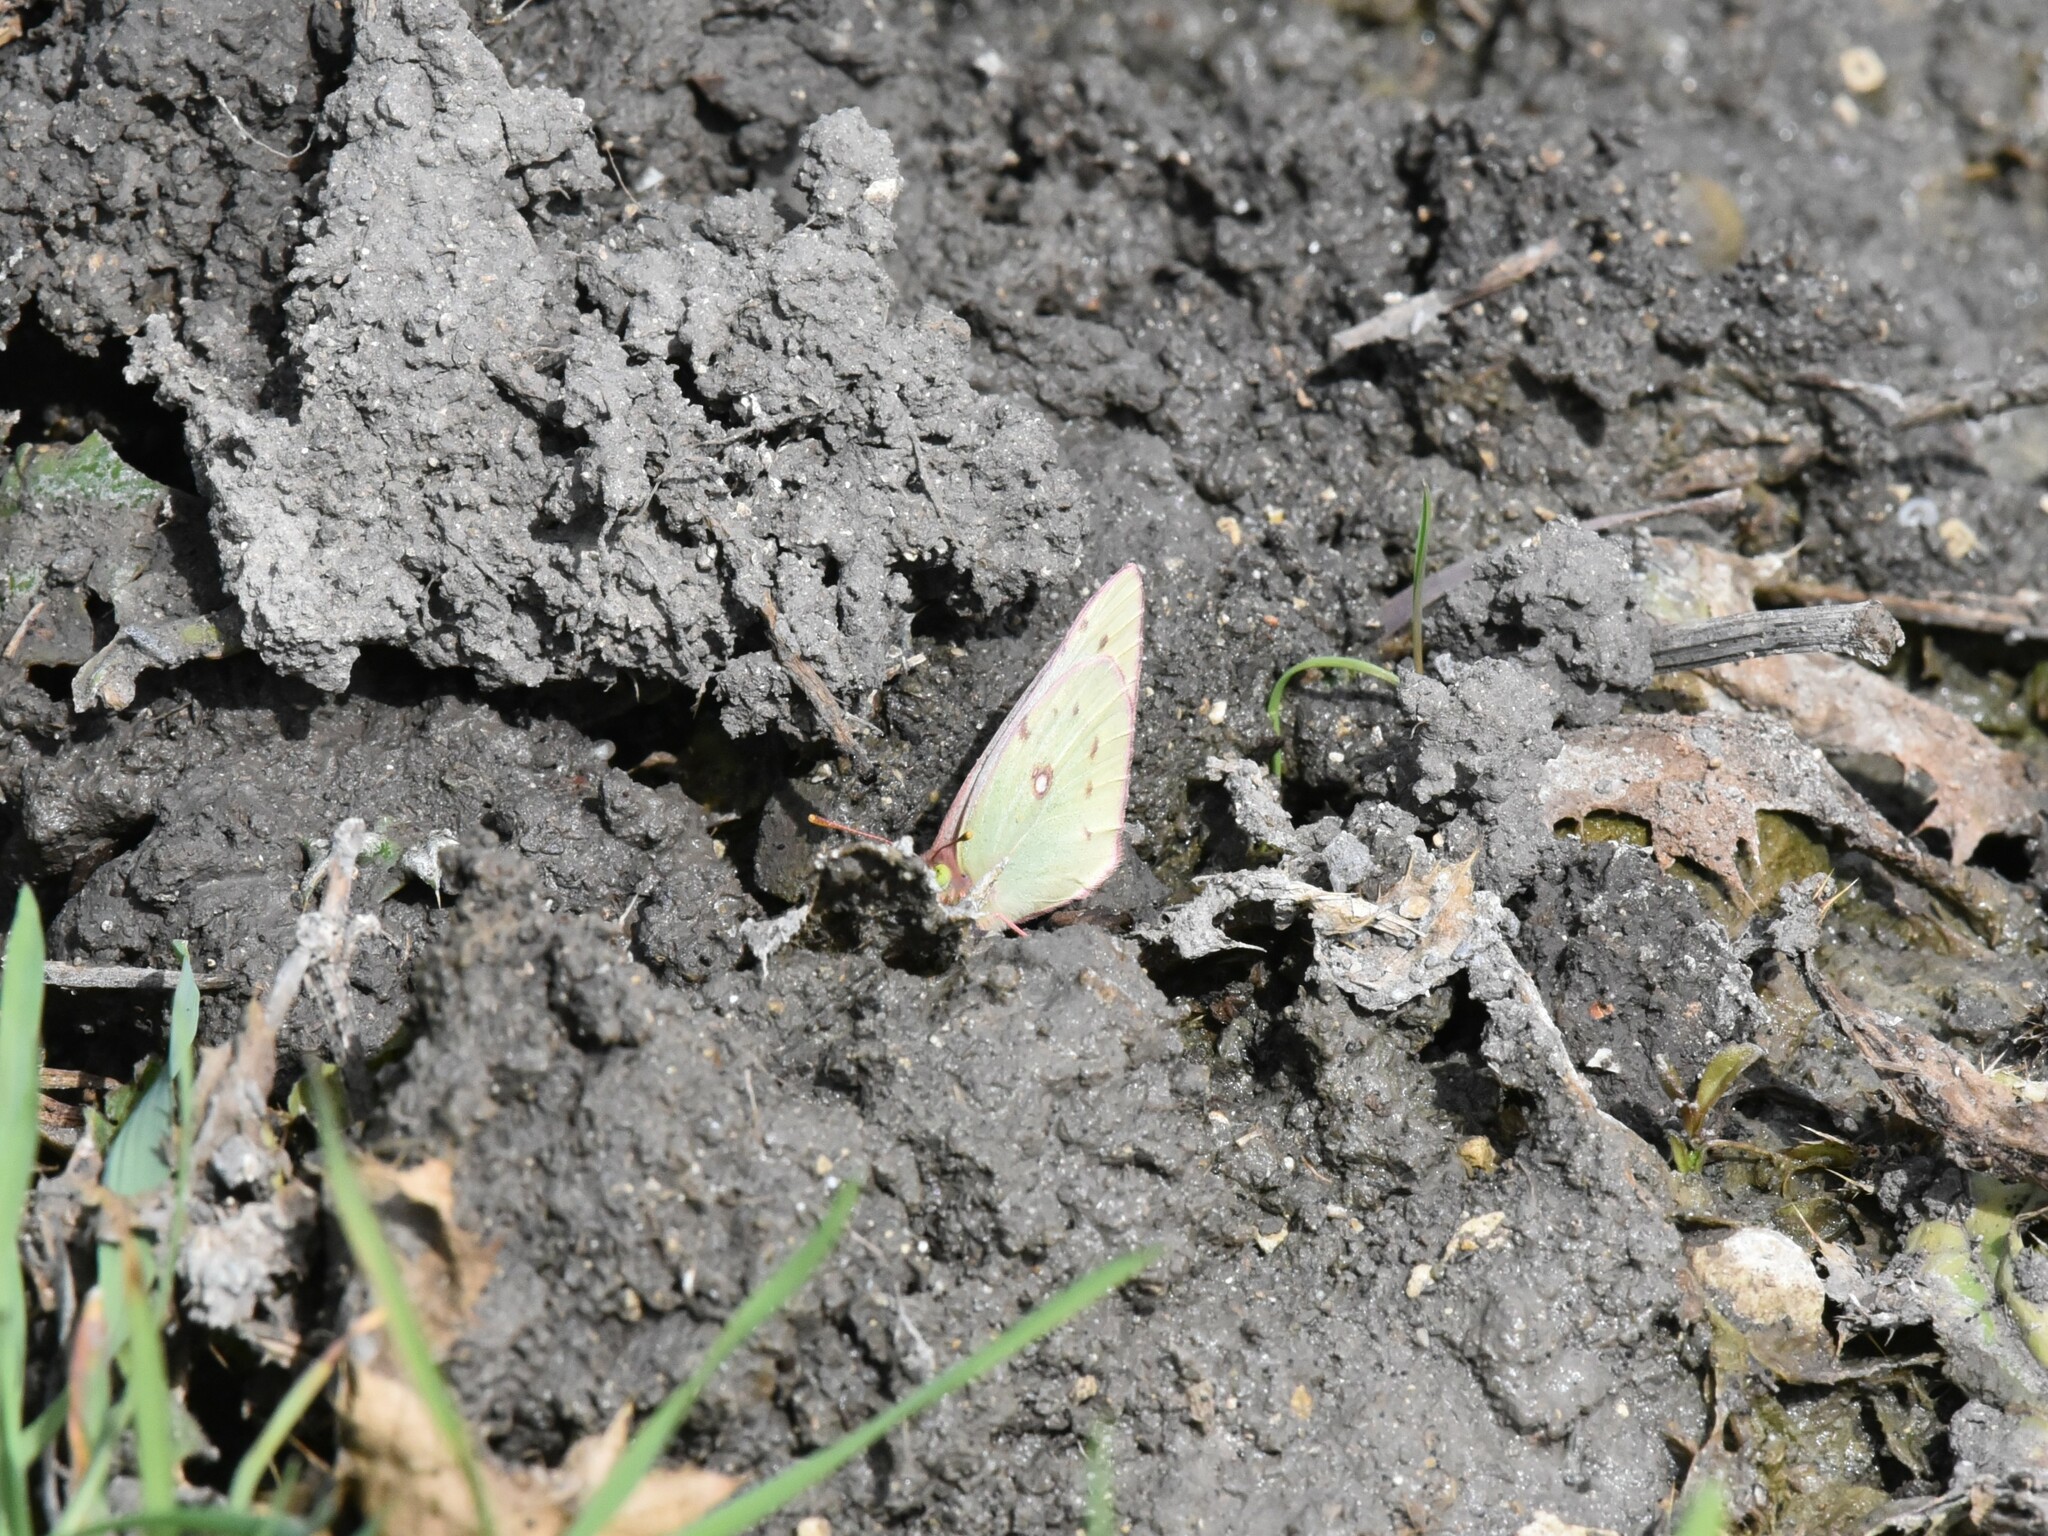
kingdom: Animalia
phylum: Arthropoda
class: Insecta
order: Lepidoptera
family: Pieridae
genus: Colias
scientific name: Colias eurytheme
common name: Alfalfa butterfly
